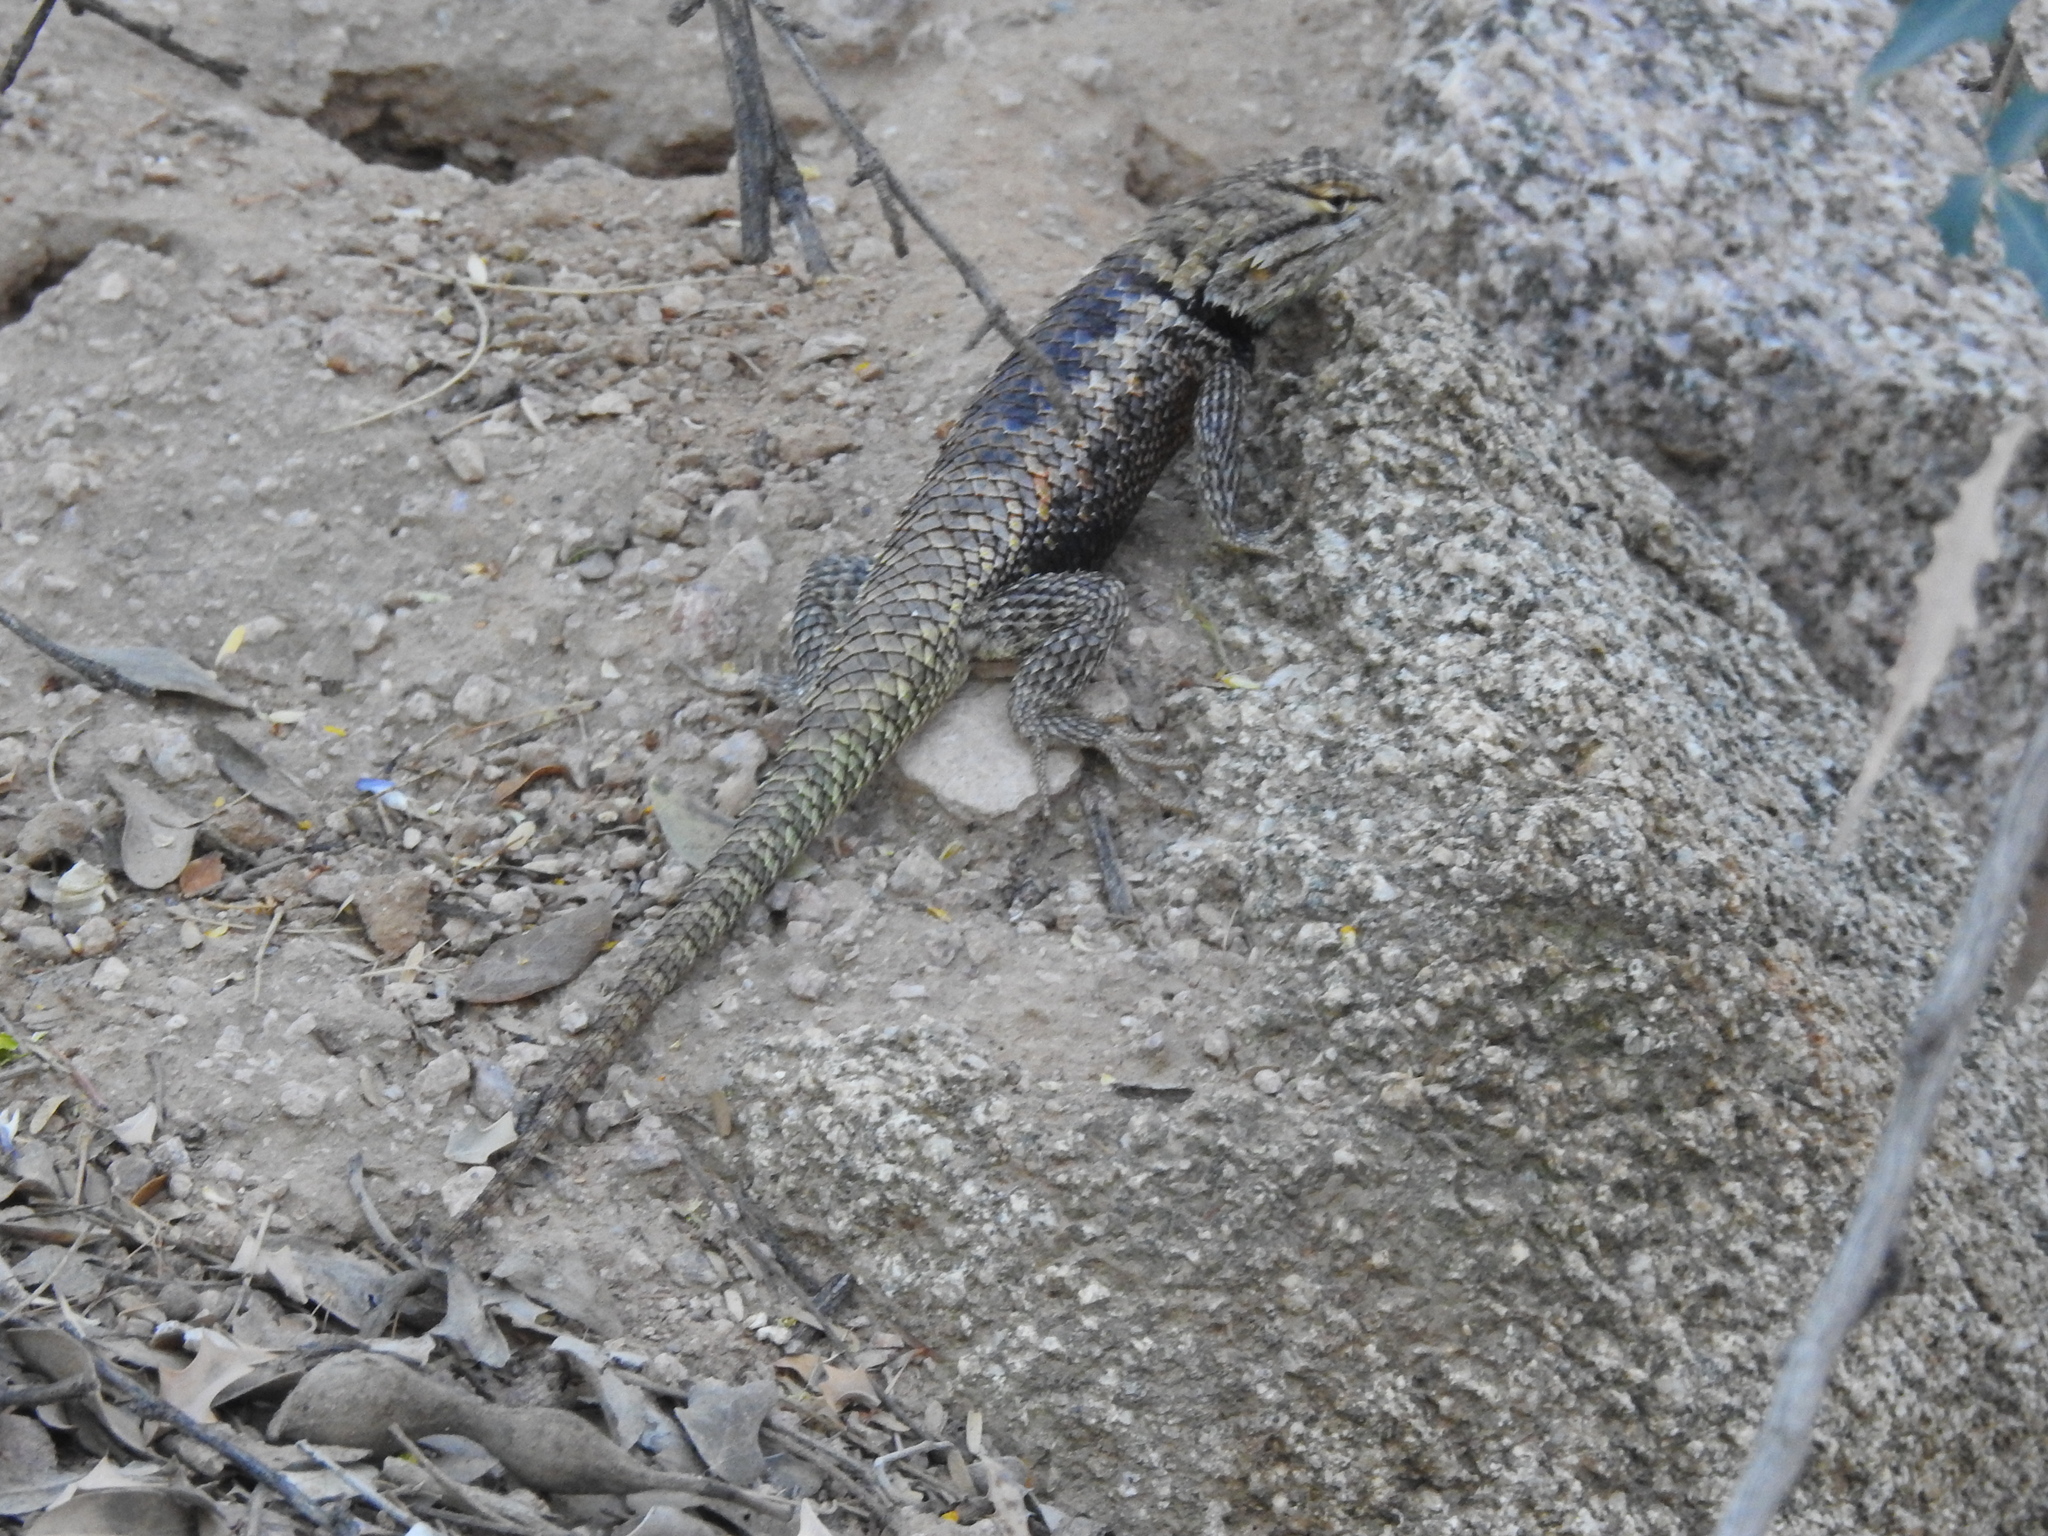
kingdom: Animalia
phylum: Chordata
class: Squamata
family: Phrynosomatidae
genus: Sceloporus
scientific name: Sceloporus magister
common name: Desert spiny lizard
